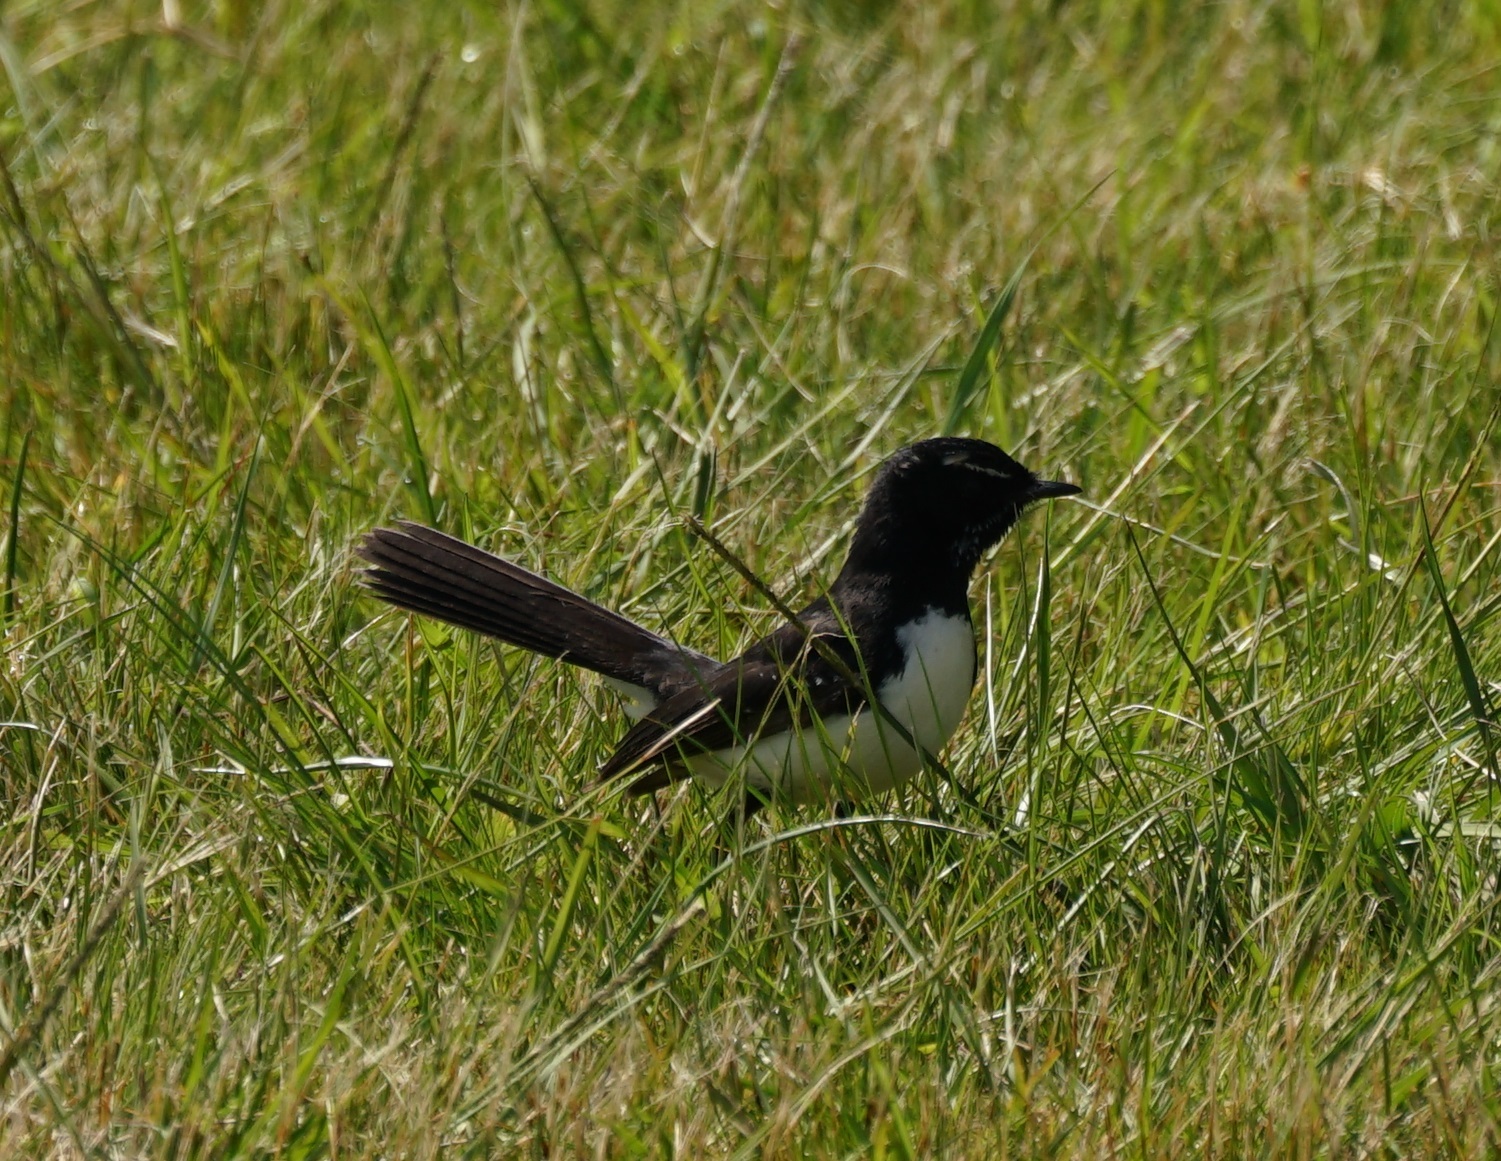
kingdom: Animalia
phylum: Chordata
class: Aves
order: Passeriformes
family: Rhipiduridae
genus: Rhipidura
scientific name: Rhipidura leucophrys
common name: Willie wagtail
